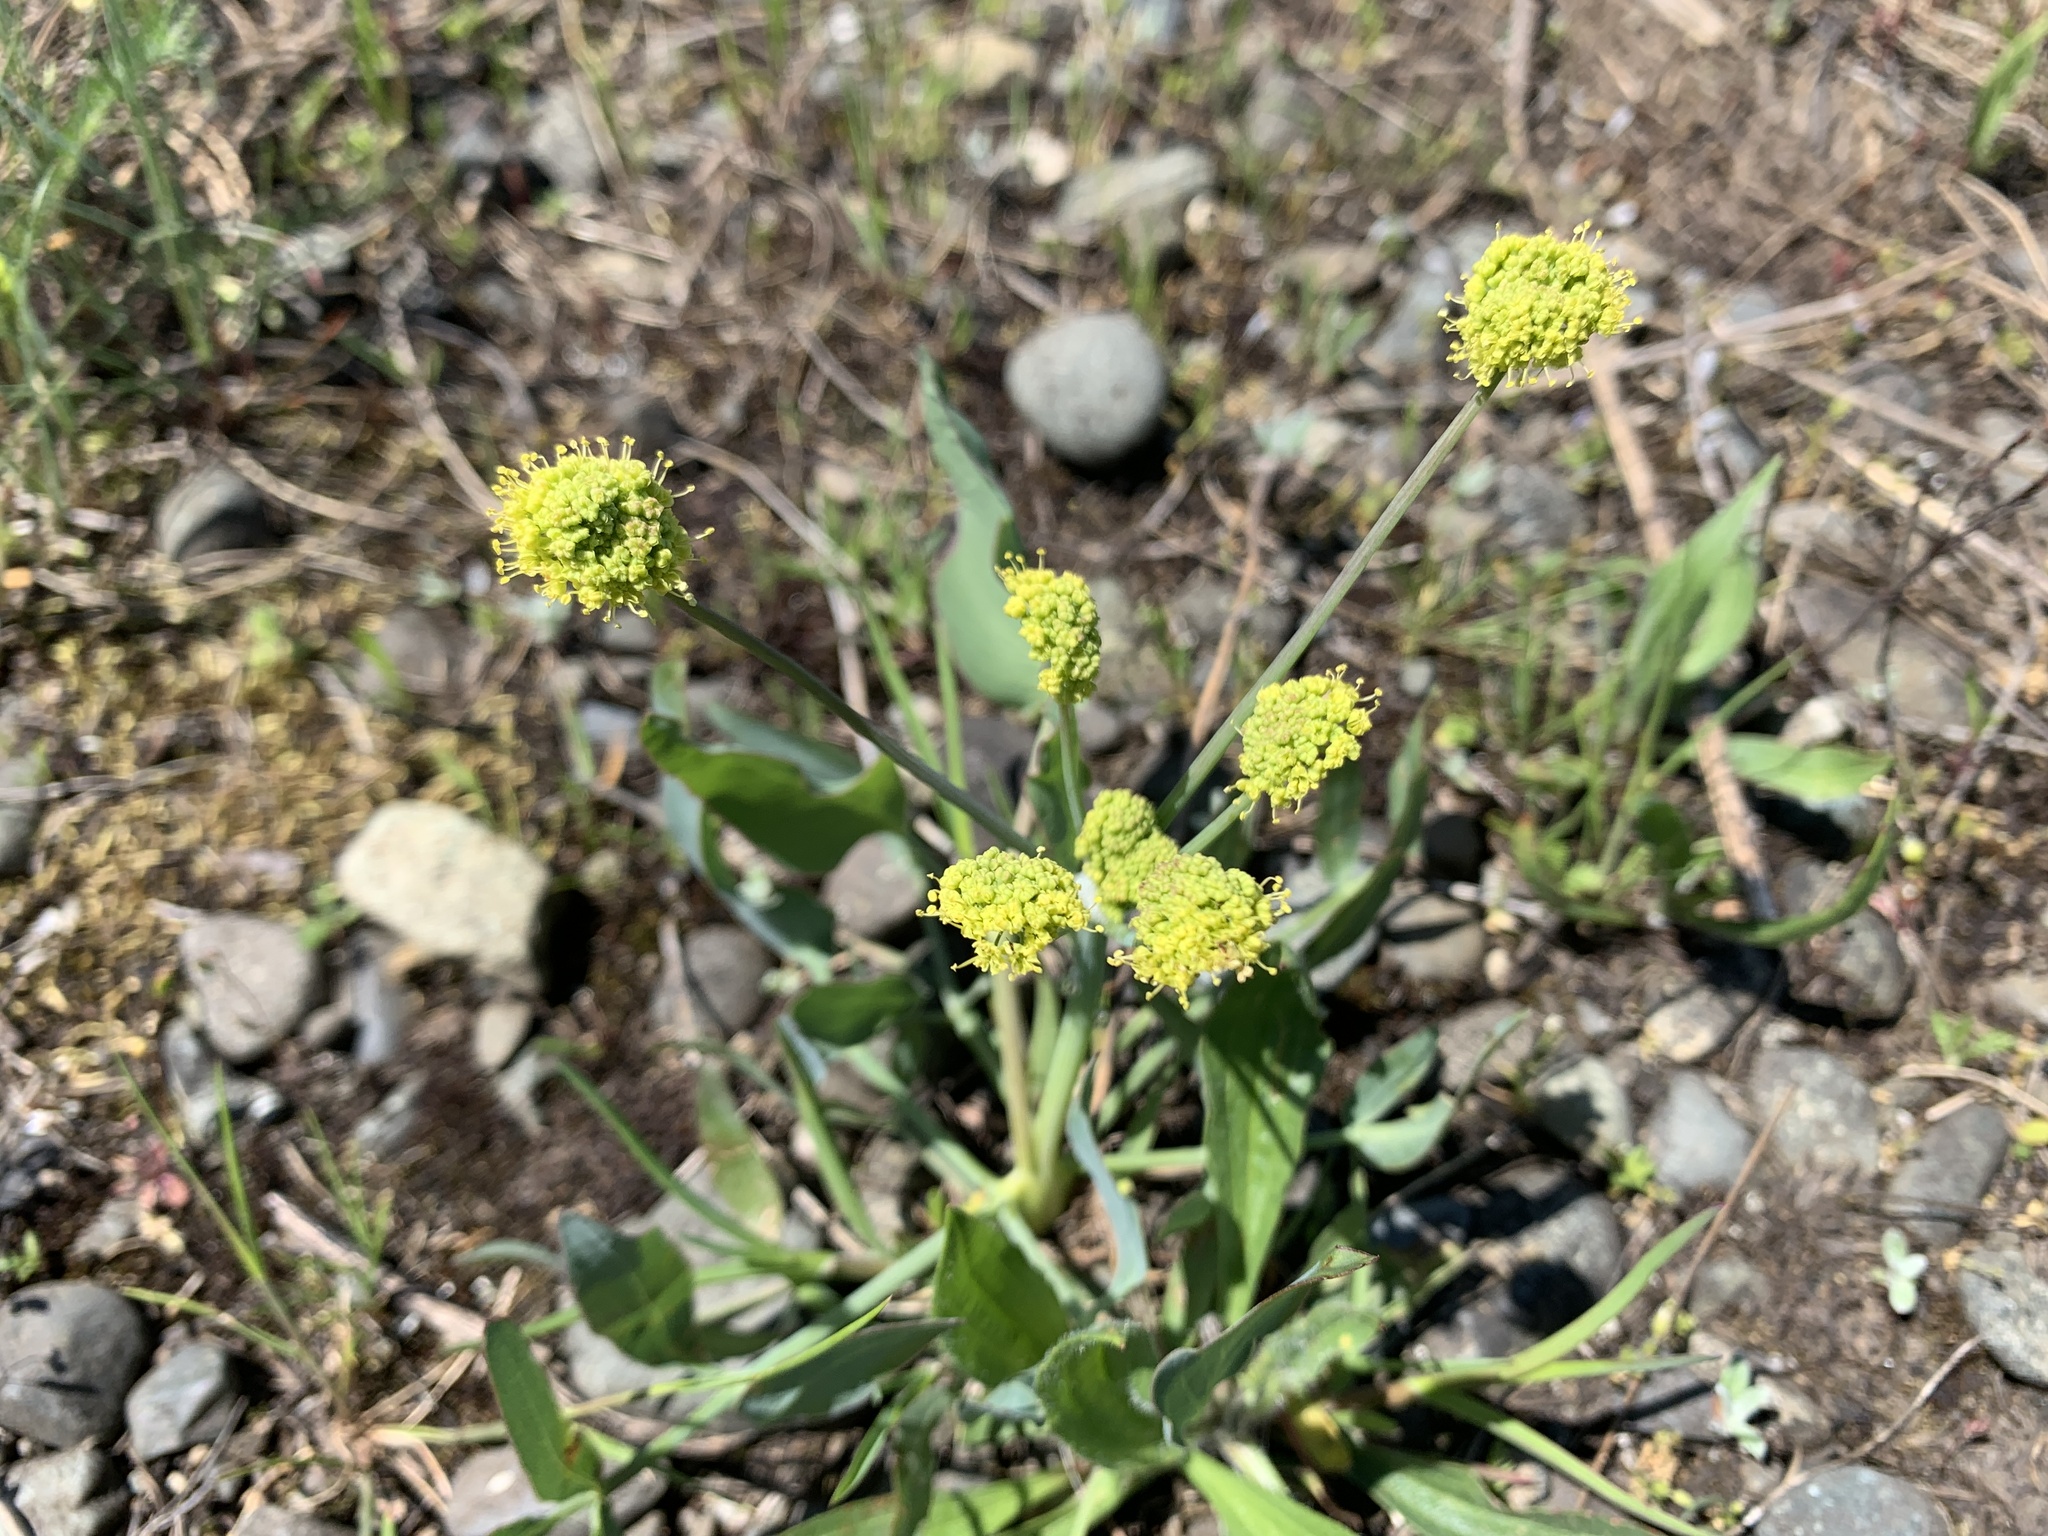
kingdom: Plantae
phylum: Tracheophyta
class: Magnoliopsida
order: Apiales
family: Apiaceae
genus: Lomatium
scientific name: Lomatium nudicaule
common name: Pestle lomatium
